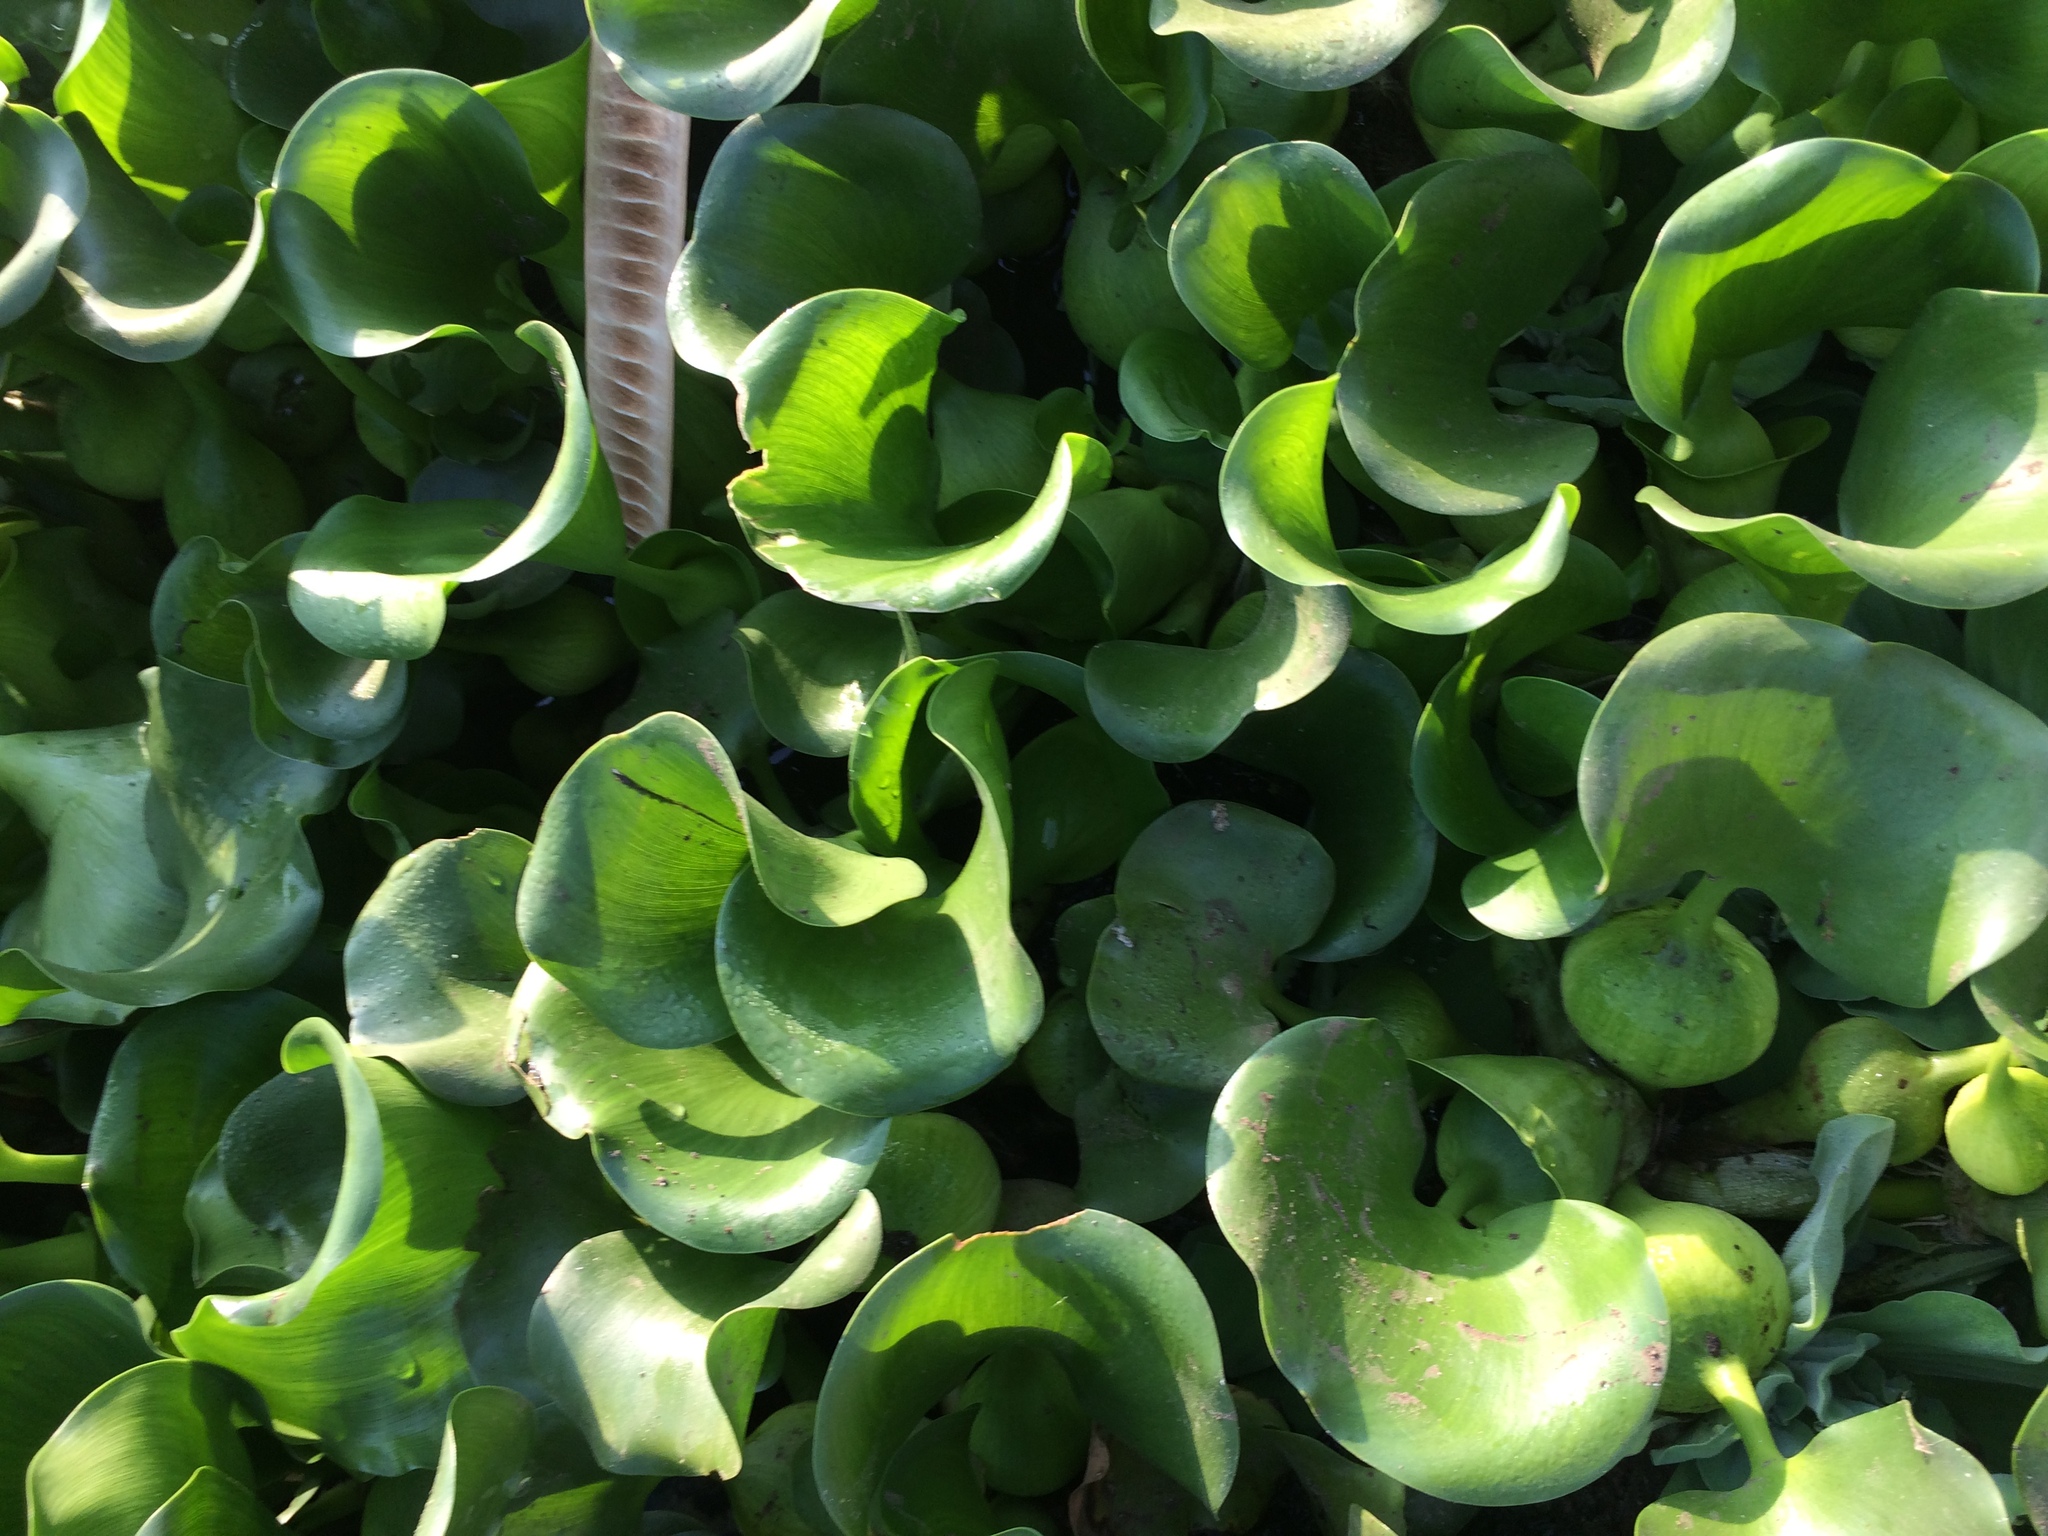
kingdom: Plantae
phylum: Tracheophyta
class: Liliopsida
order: Commelinales
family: Pontederiaceae
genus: Pontederia
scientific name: Pontederia crassipes
